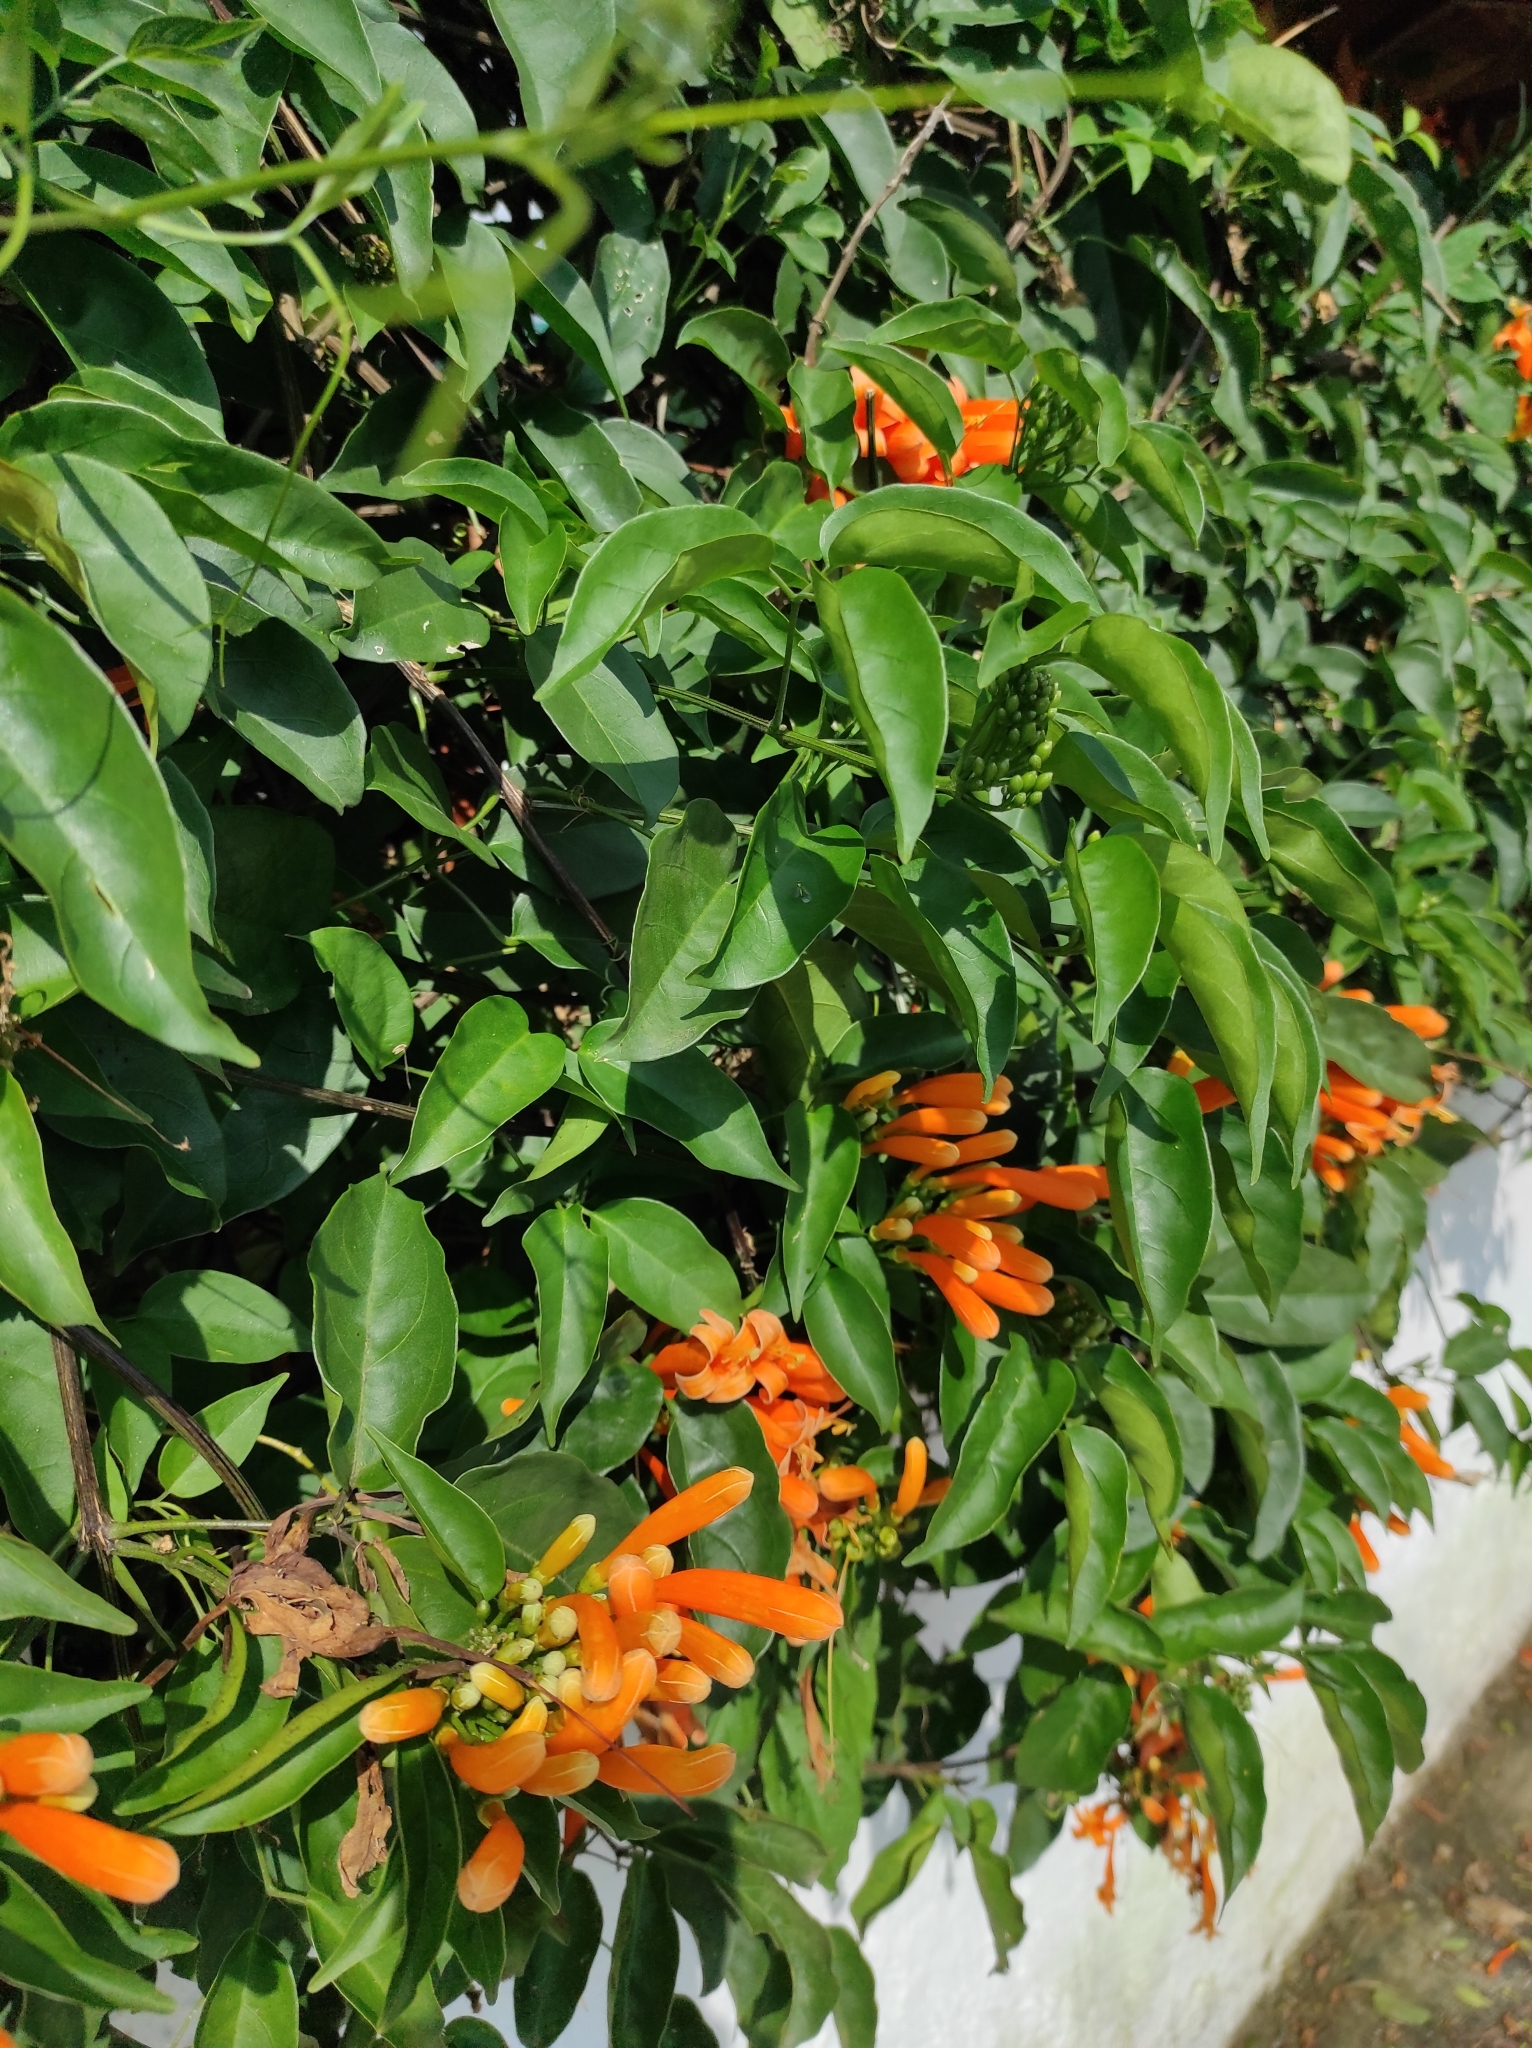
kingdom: Plantae
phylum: Tracheophyta
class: Magnoliopsida
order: Lamiales
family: Bignoniaceae
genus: Pyrostegia
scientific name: Pyrostegia venusta
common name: Flamevine
